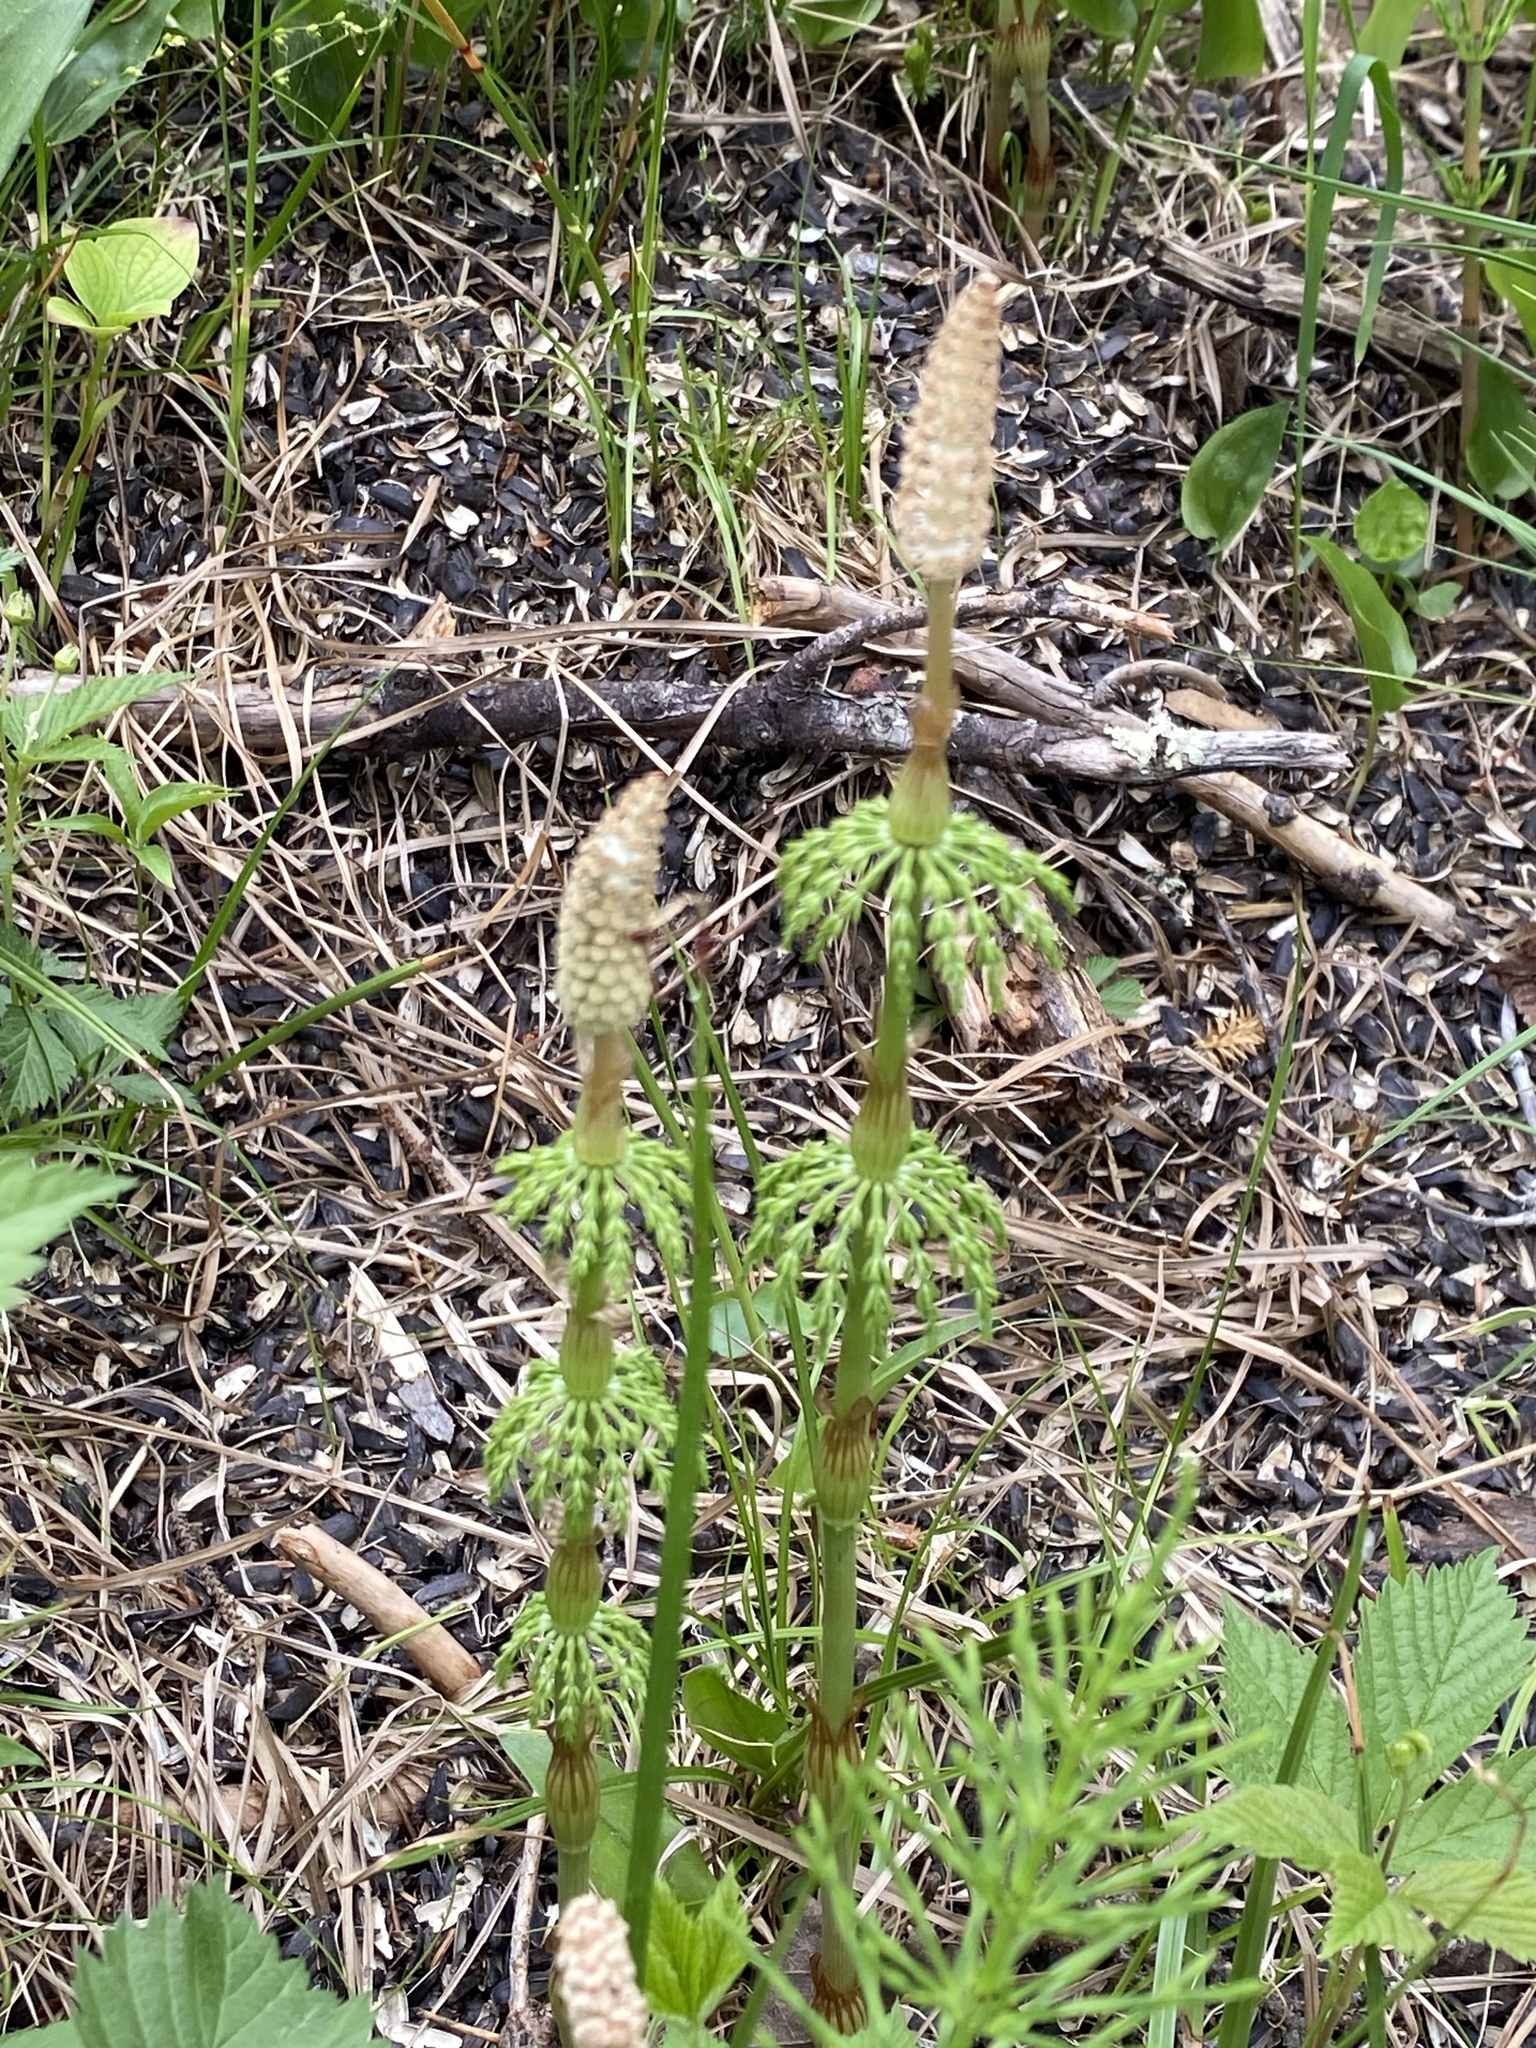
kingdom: Plantae
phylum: Tracheophyta
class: Polypodiopsida
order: Equisetales
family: Equisetaceae
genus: Equisetum
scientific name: Equisetum sylvaticum
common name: Wood horsetail
